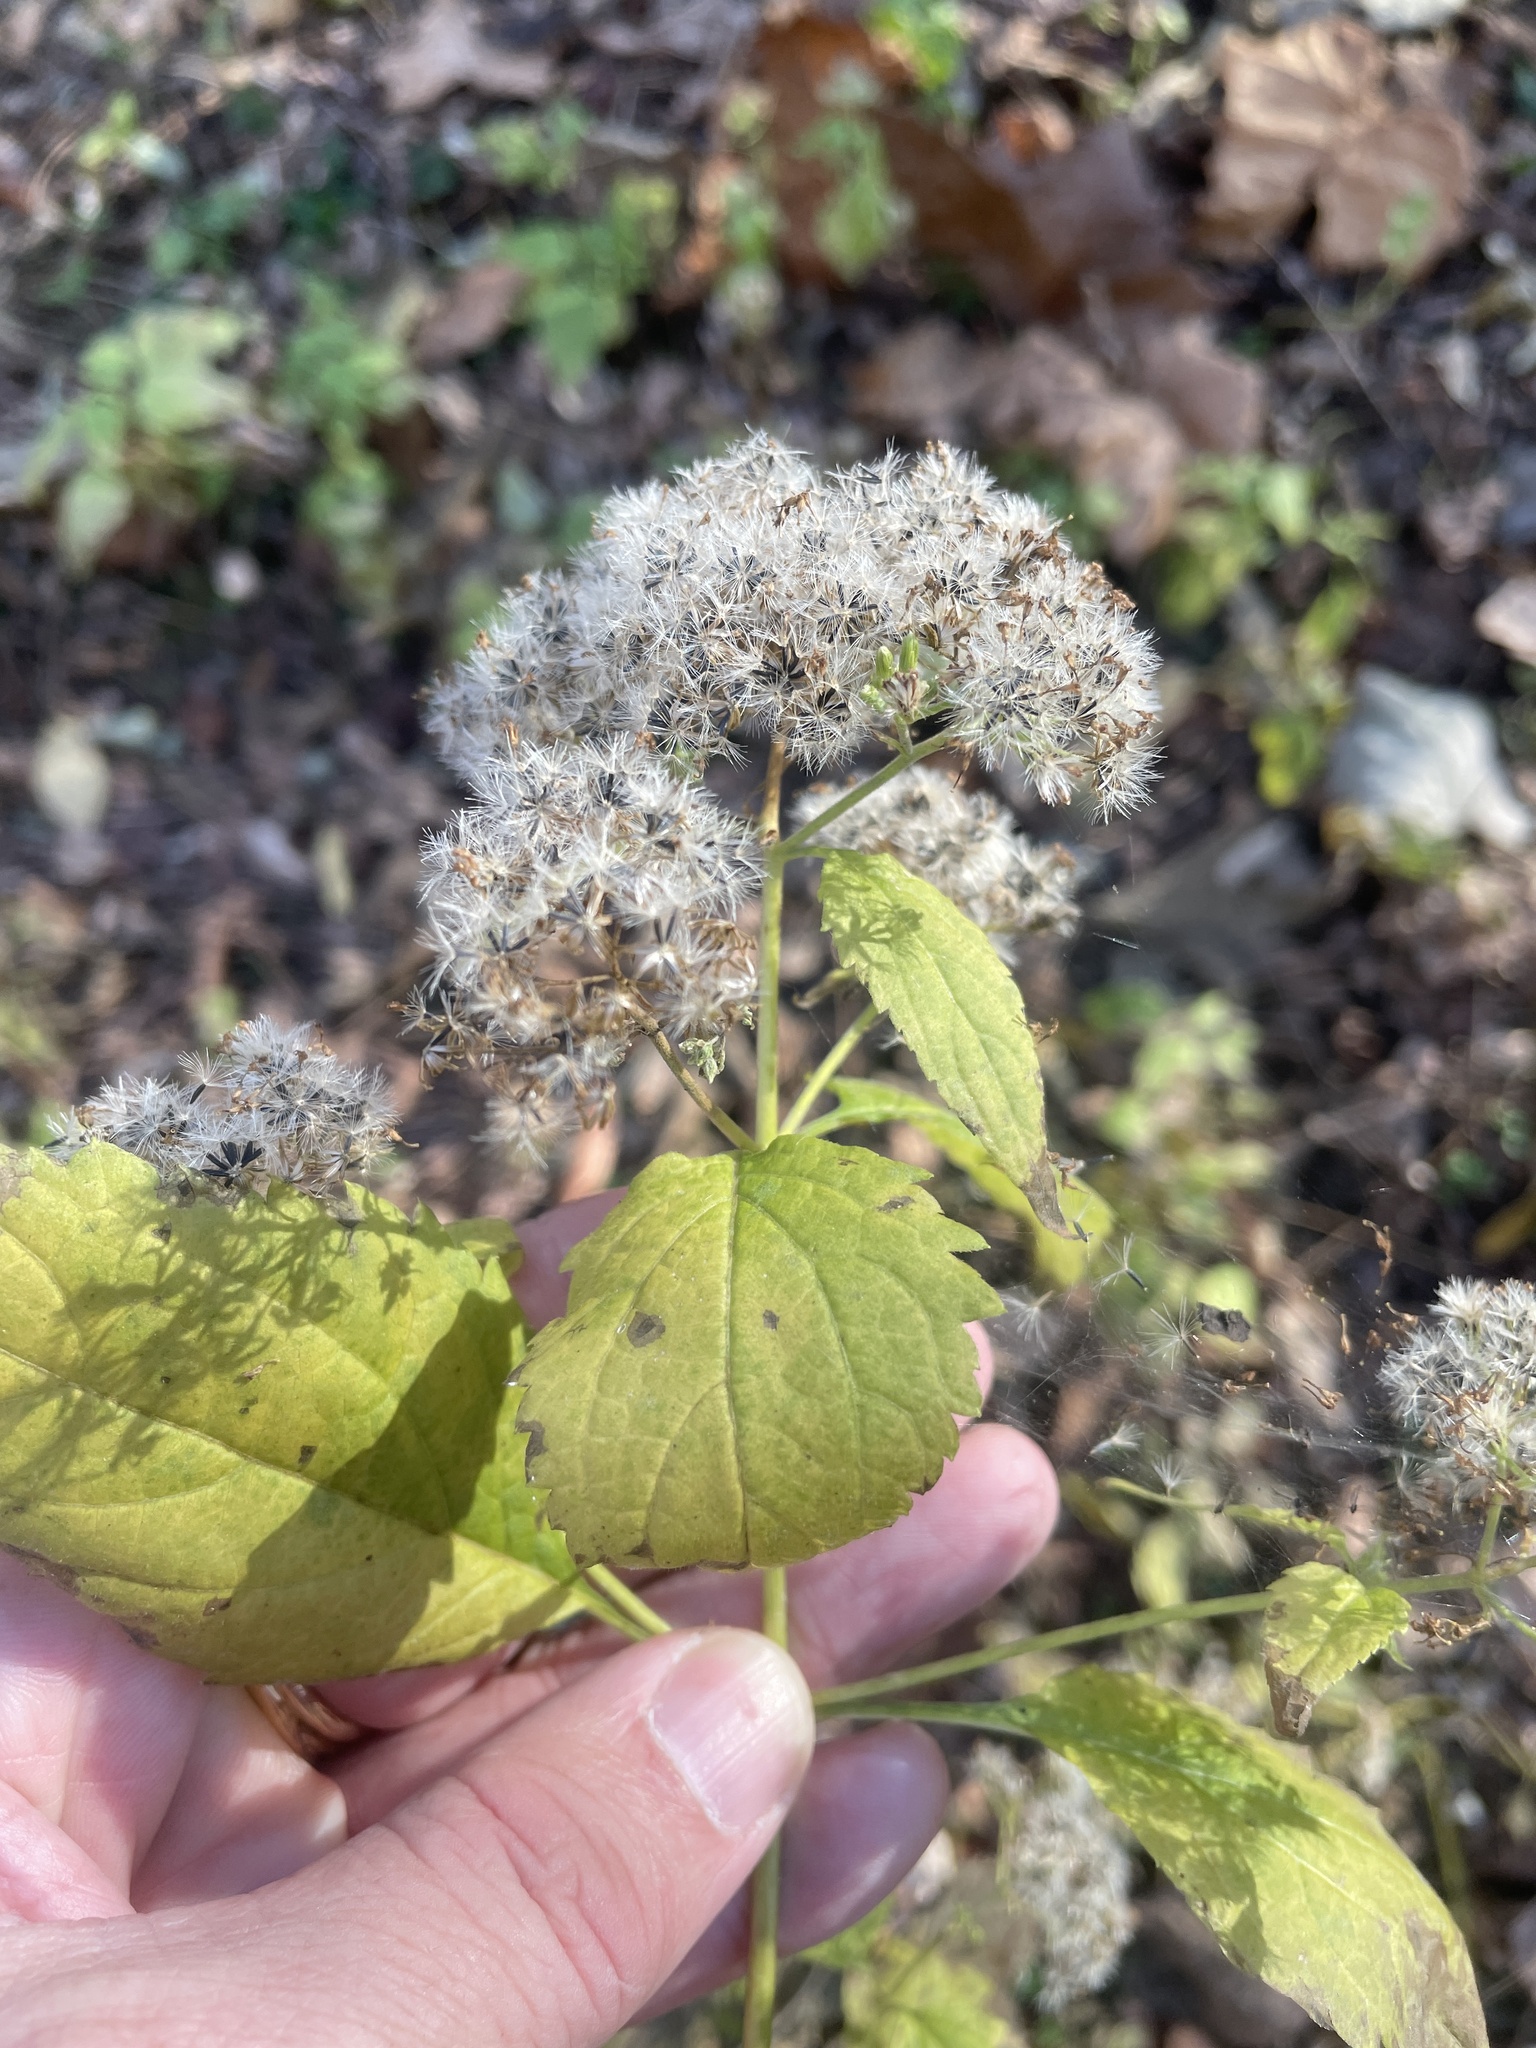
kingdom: Plantae
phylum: Tracheophyta
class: Magnoliopsida
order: Asterales
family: Asteraceae
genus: Ageratina
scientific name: Ageratina altissima
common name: White snakeroot
